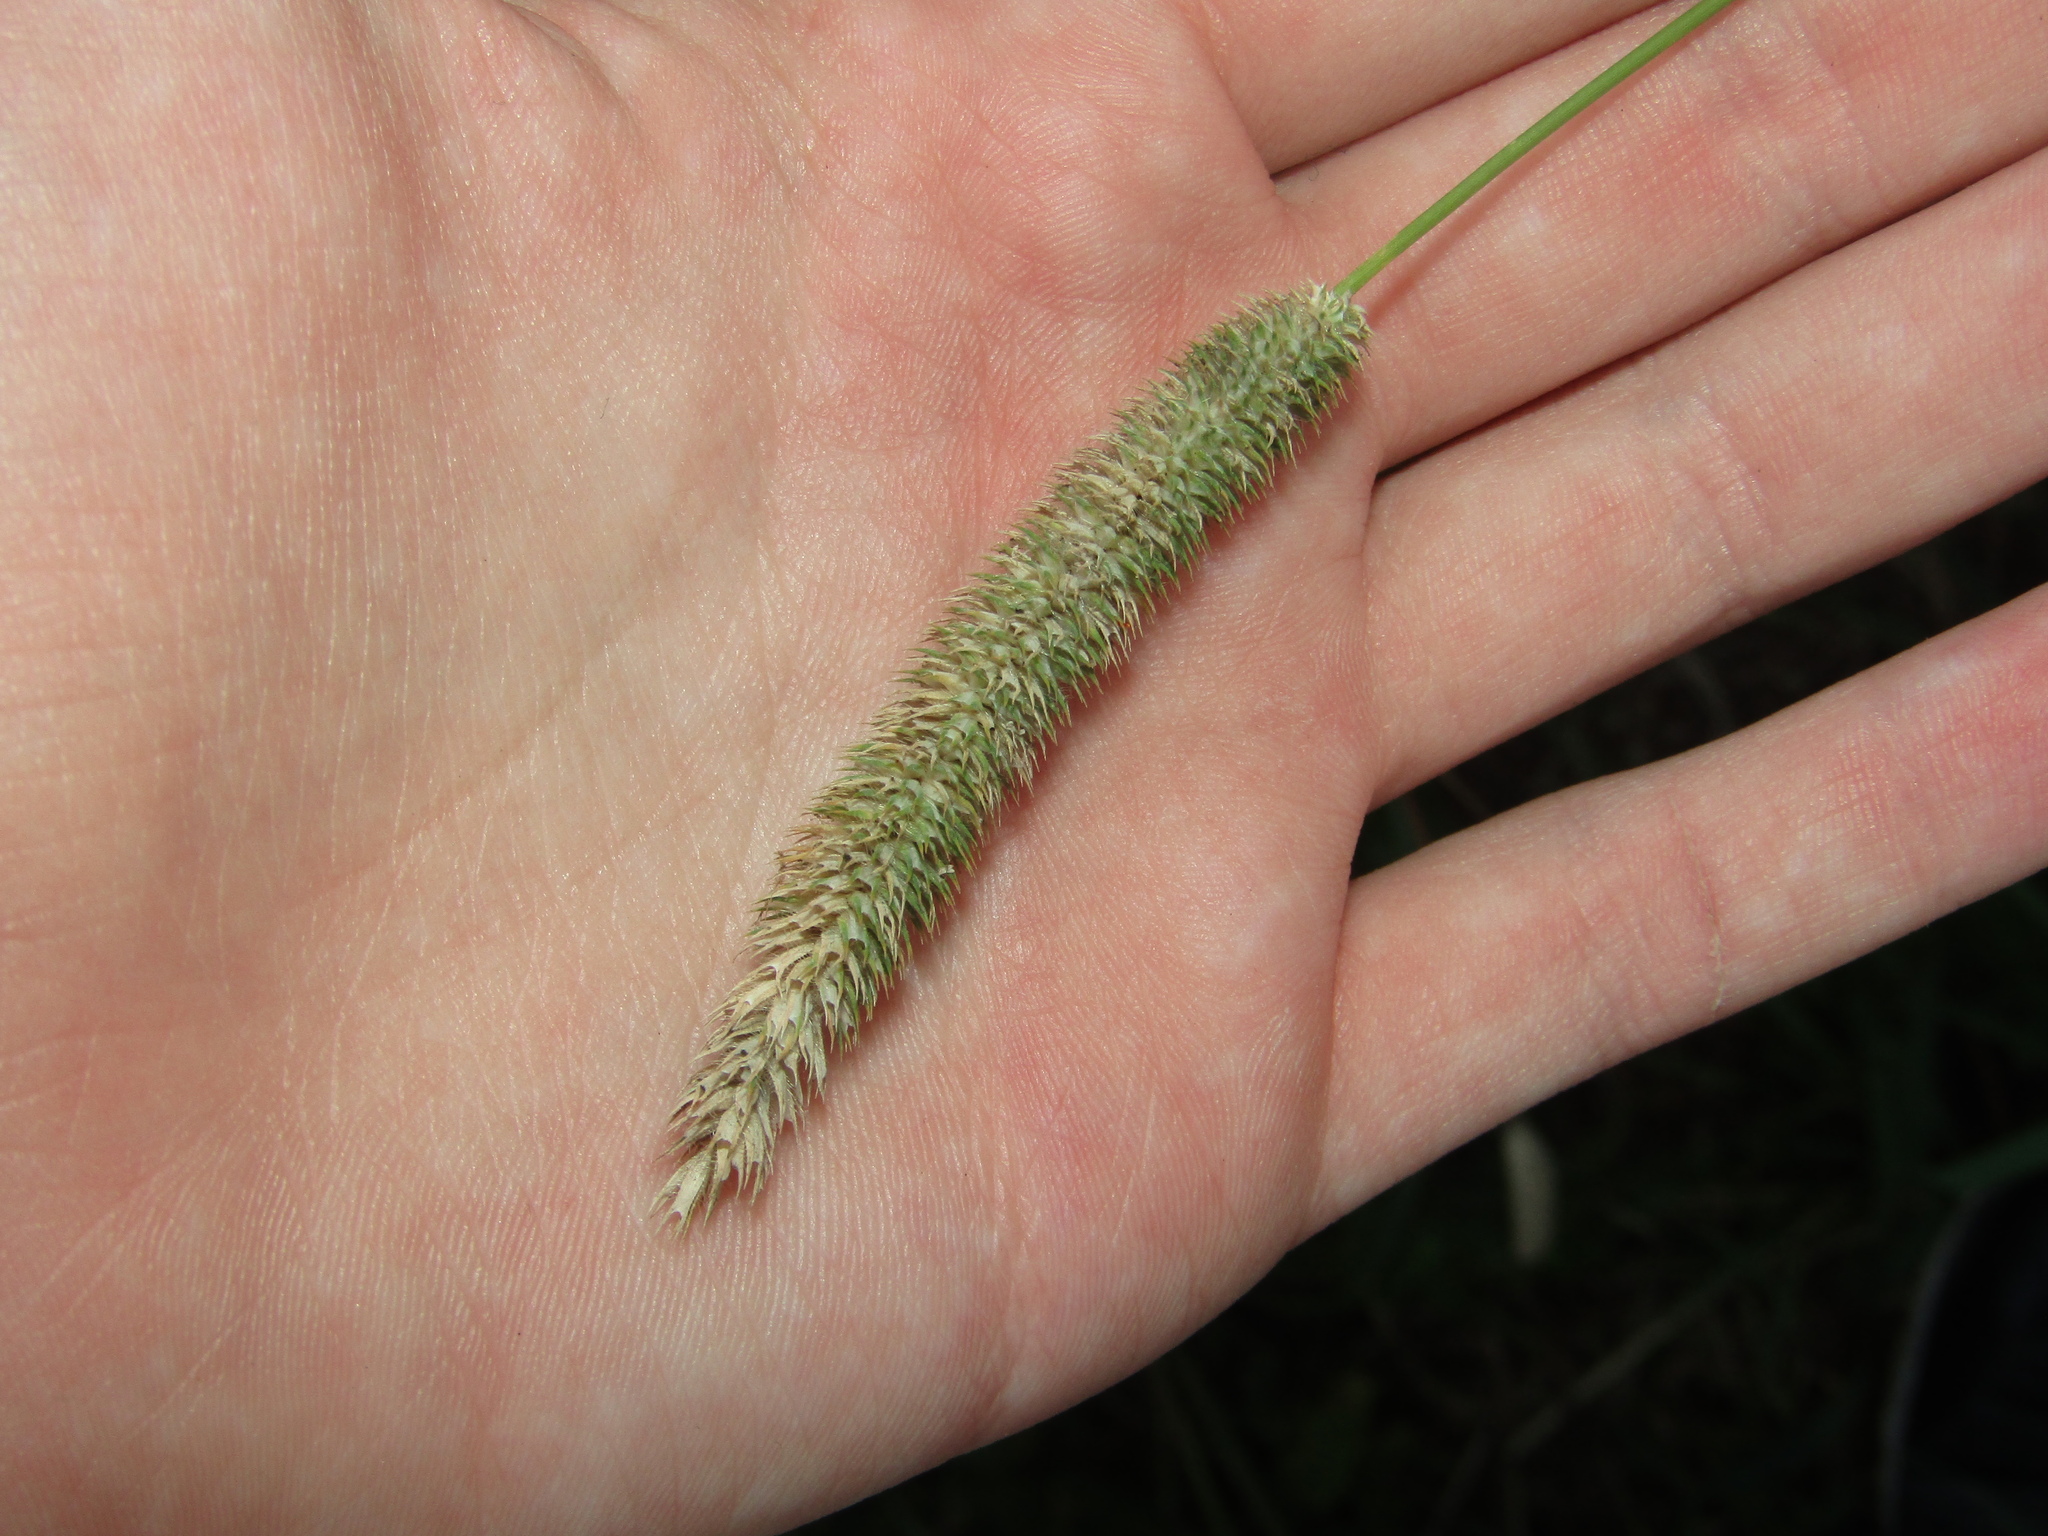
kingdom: Plantae
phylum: Tracheophyta
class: Liliopsida
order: Poales
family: Poaceae
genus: Phleum
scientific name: Phleum pratense
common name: Timothy grass
